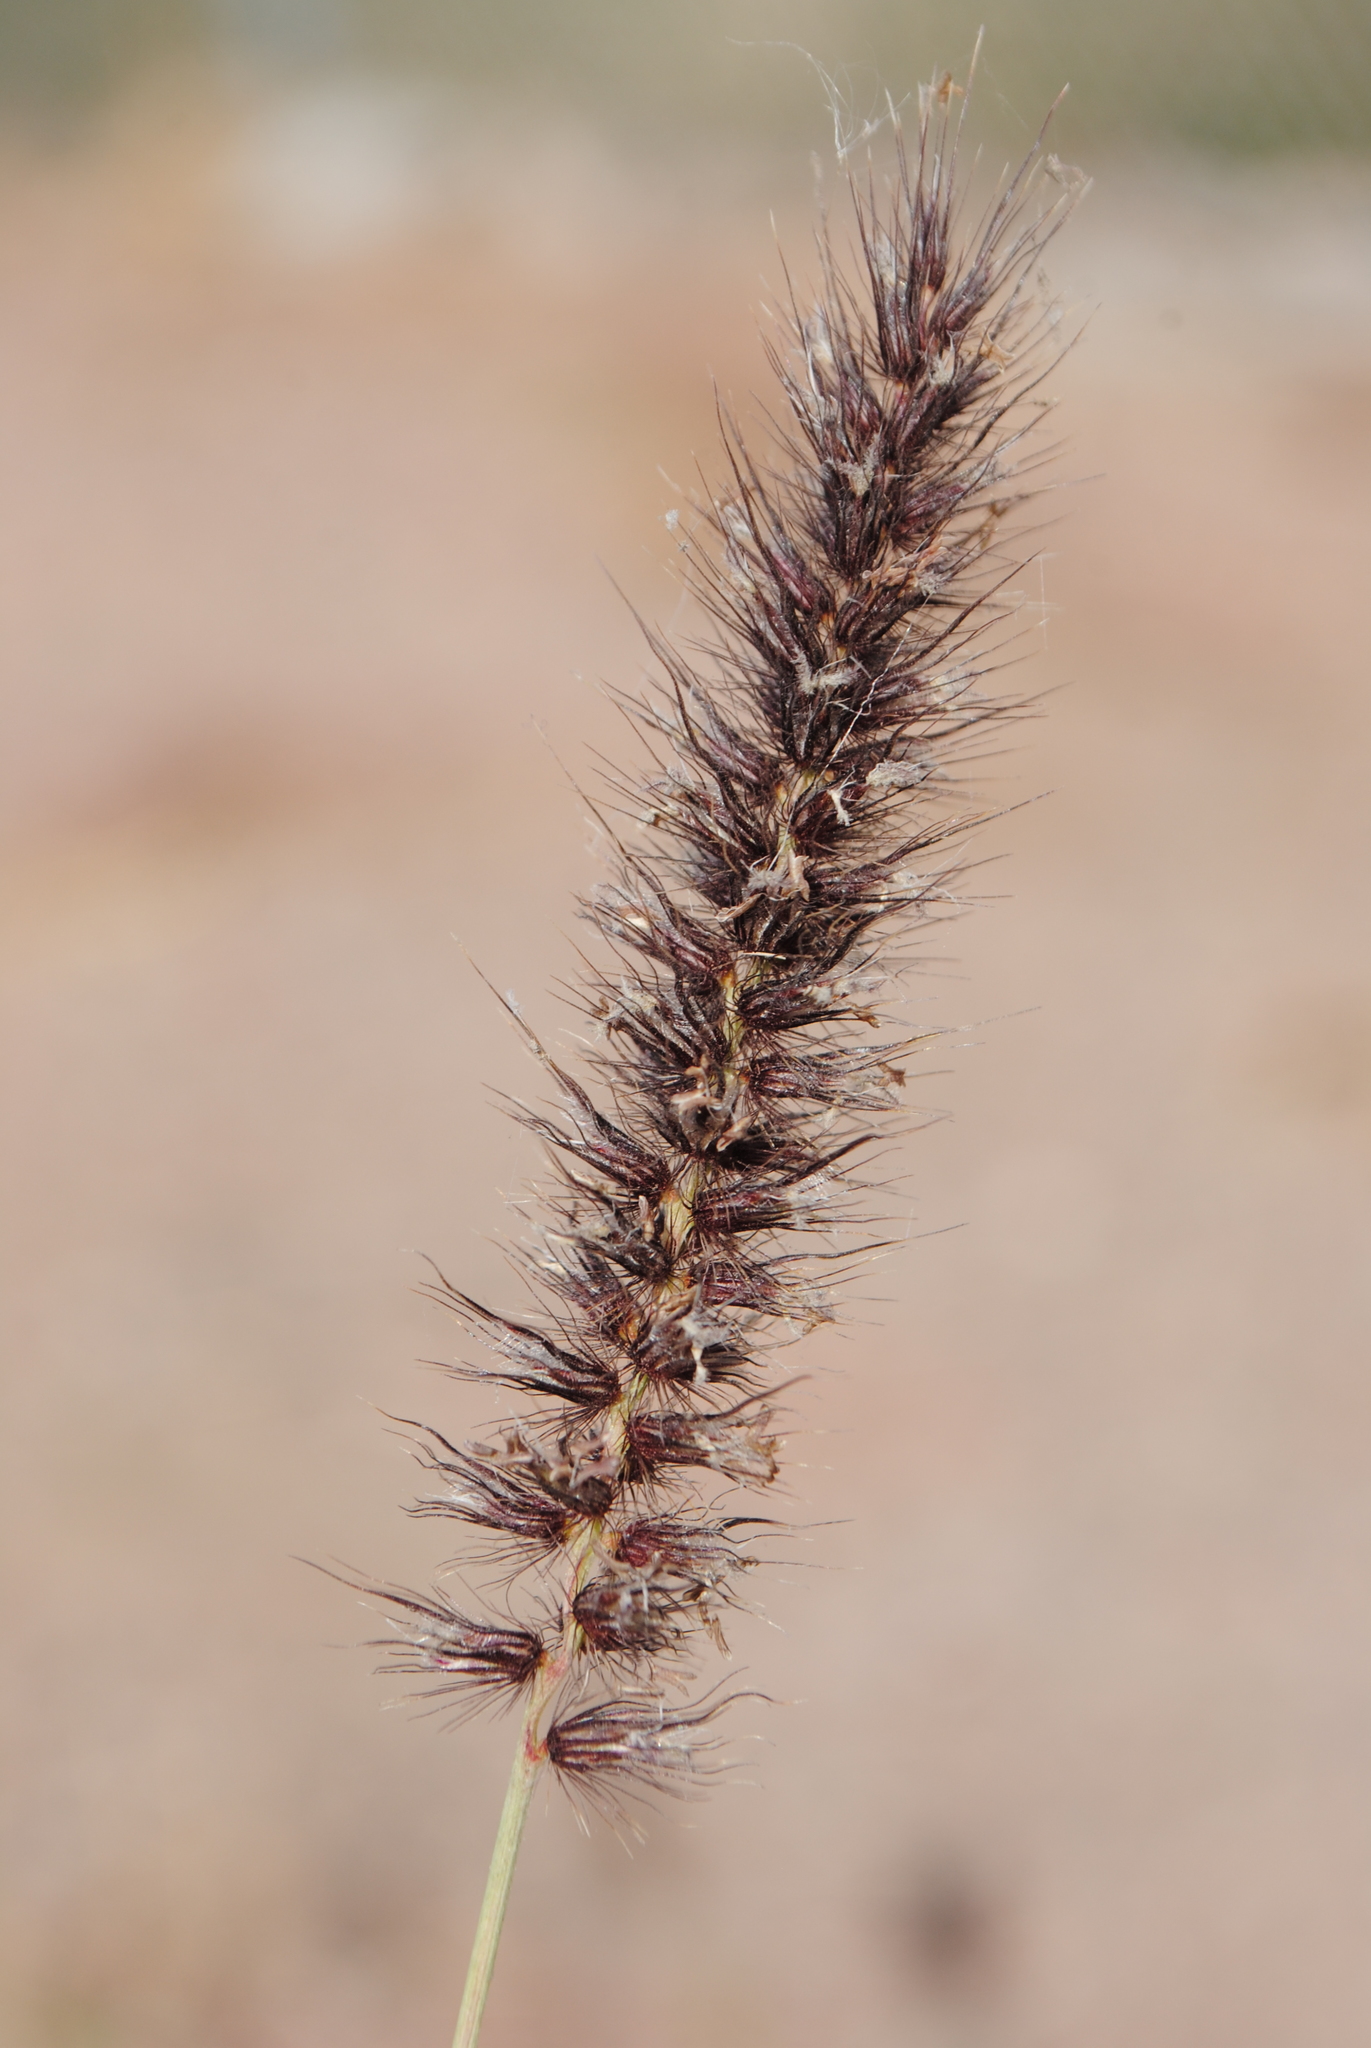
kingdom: Plantae
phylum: Tracheophyta
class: Liliopsida
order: Poales
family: Poaceae
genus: Cenchrus
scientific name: Cenchrus ciliaris
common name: Buffelgrass
